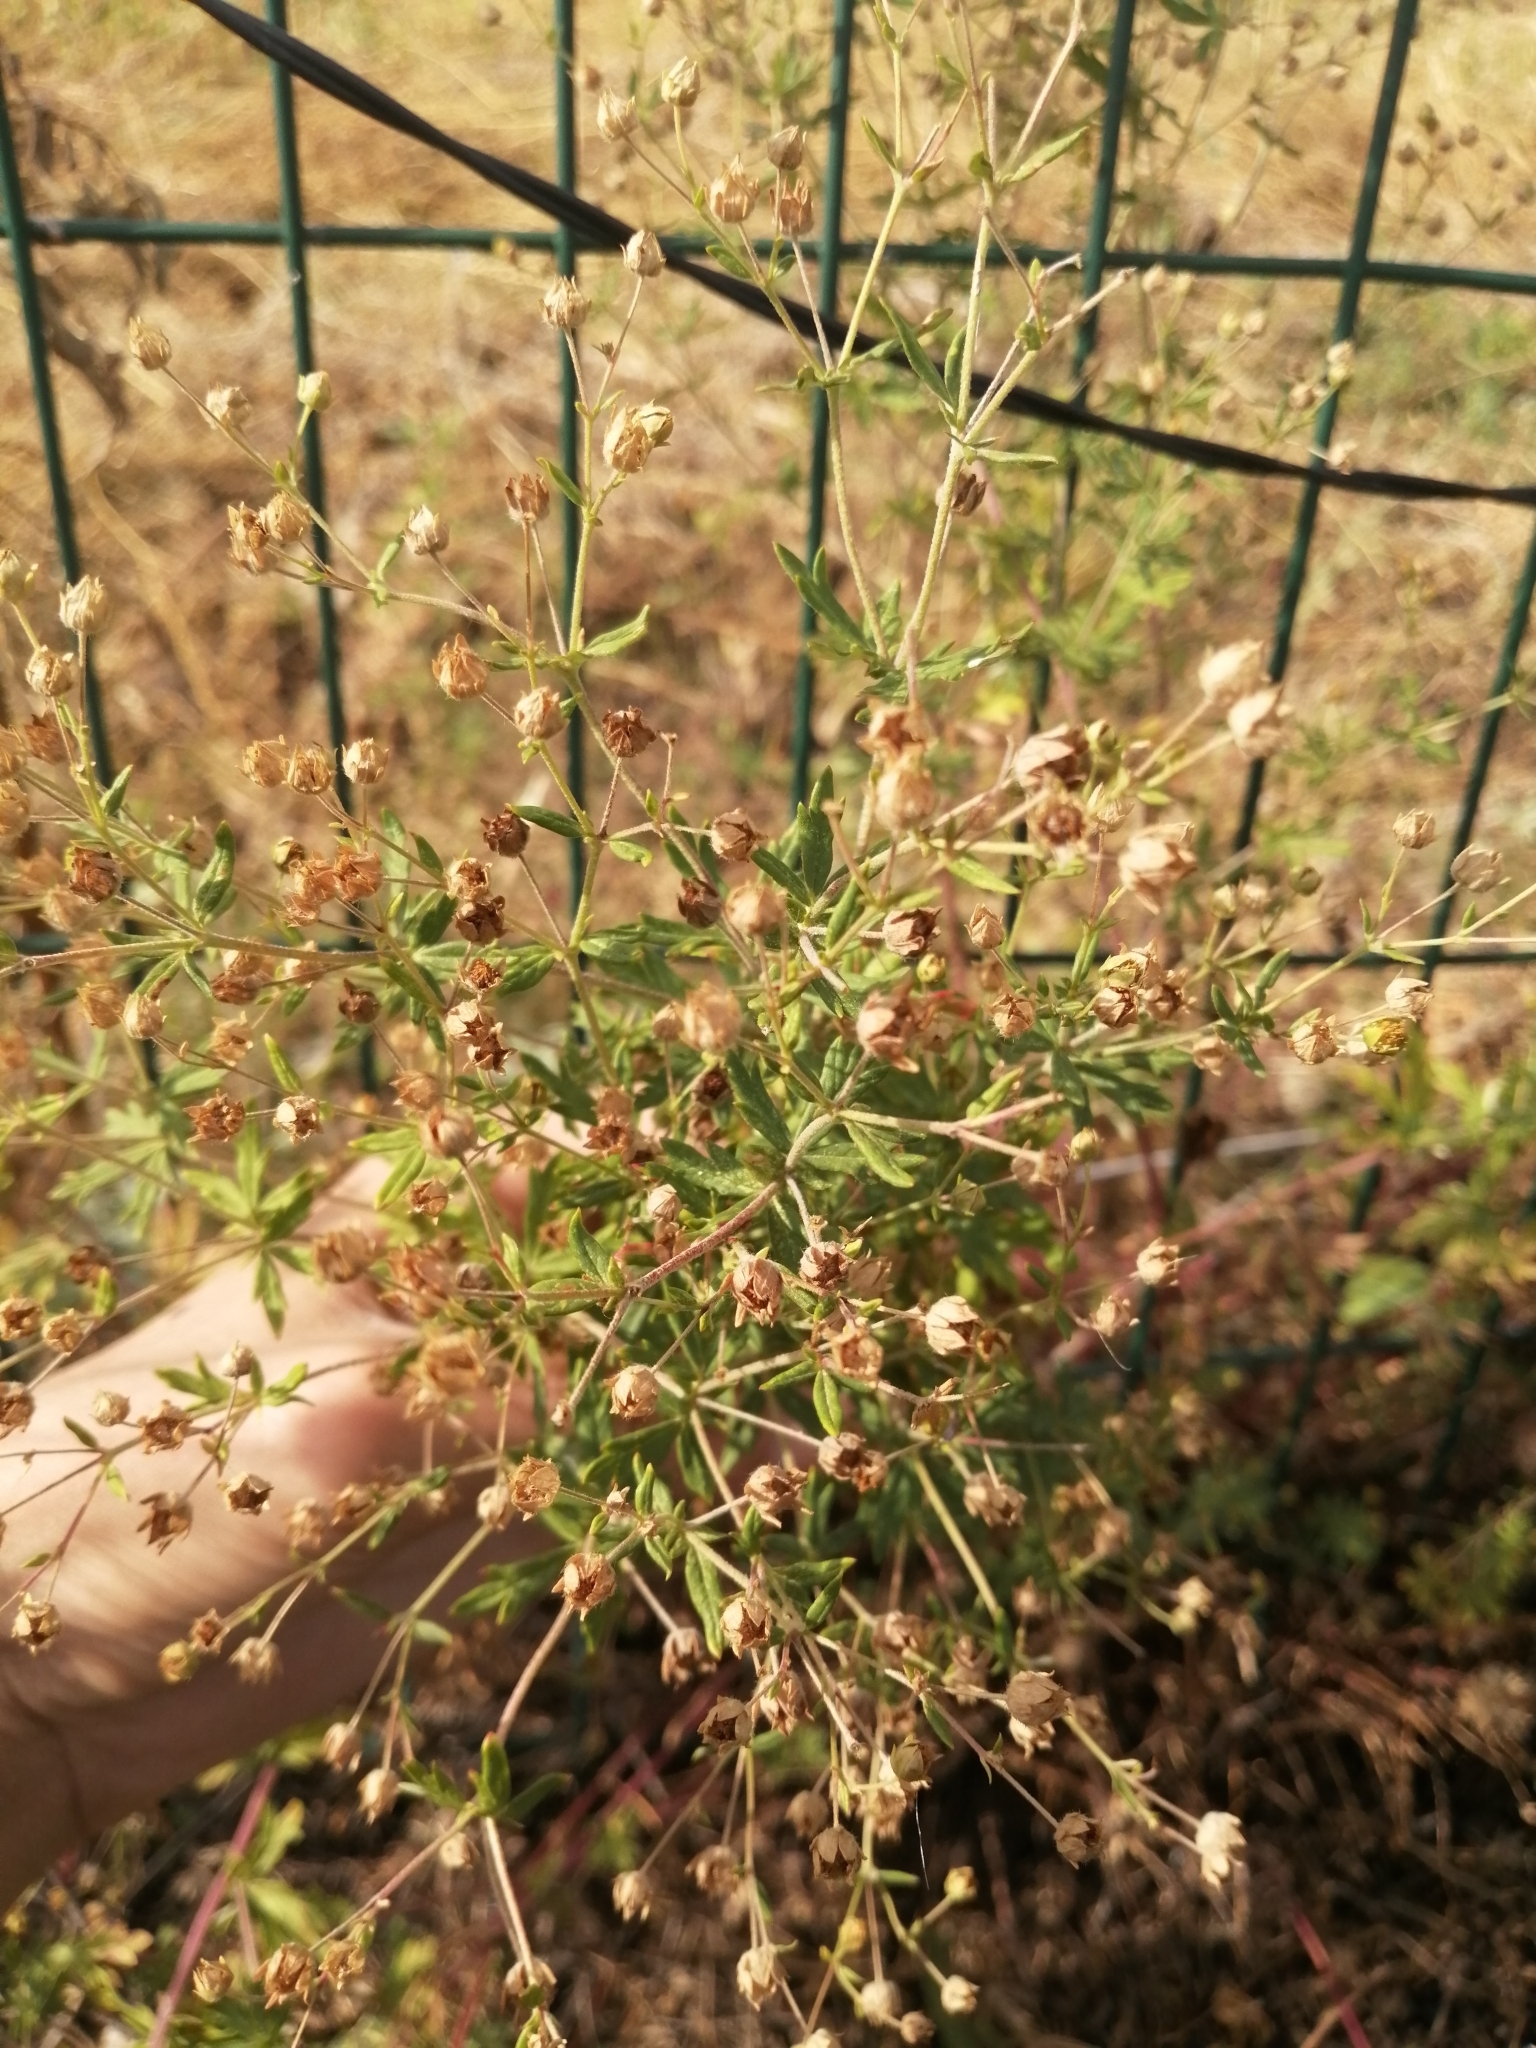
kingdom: Plantae
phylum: Tracheophyta
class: Magnoliopsida
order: Rosales
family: Rosaceae
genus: Potentilla
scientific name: Potentilla argentea
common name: Hoary cinquefoil
